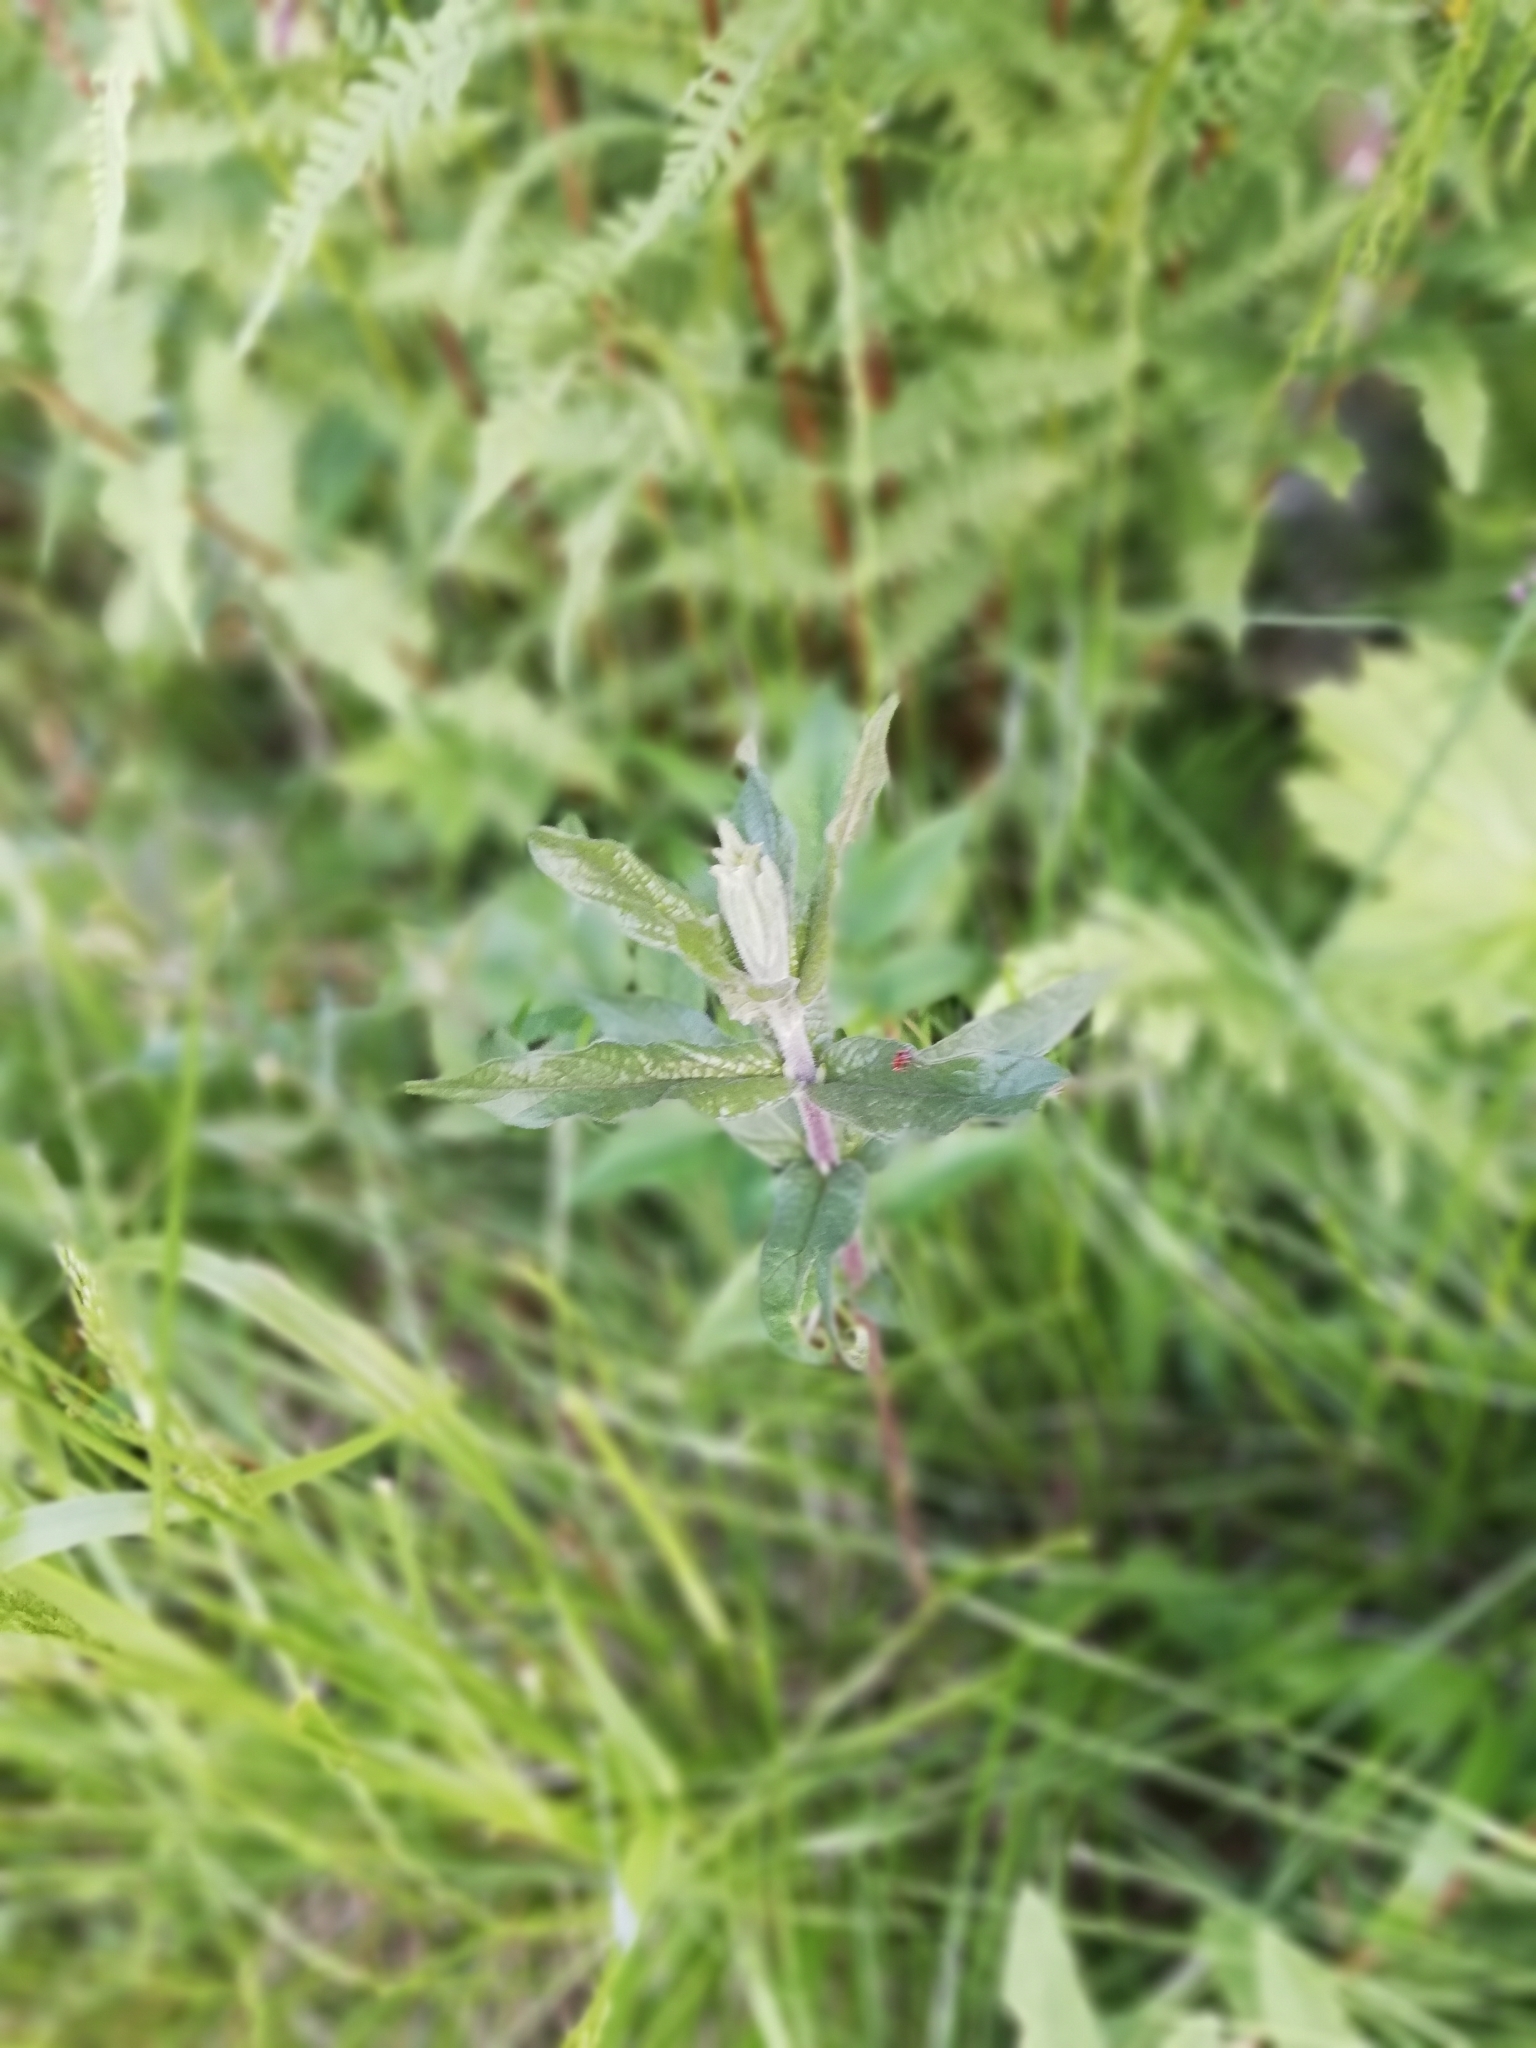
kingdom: Plantae
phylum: Tracheophyta
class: Magnoliopsida
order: Ericales
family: Primulaceae
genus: Lysimachia
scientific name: Lysimachia vulgaris
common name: Yellow loosestrife
